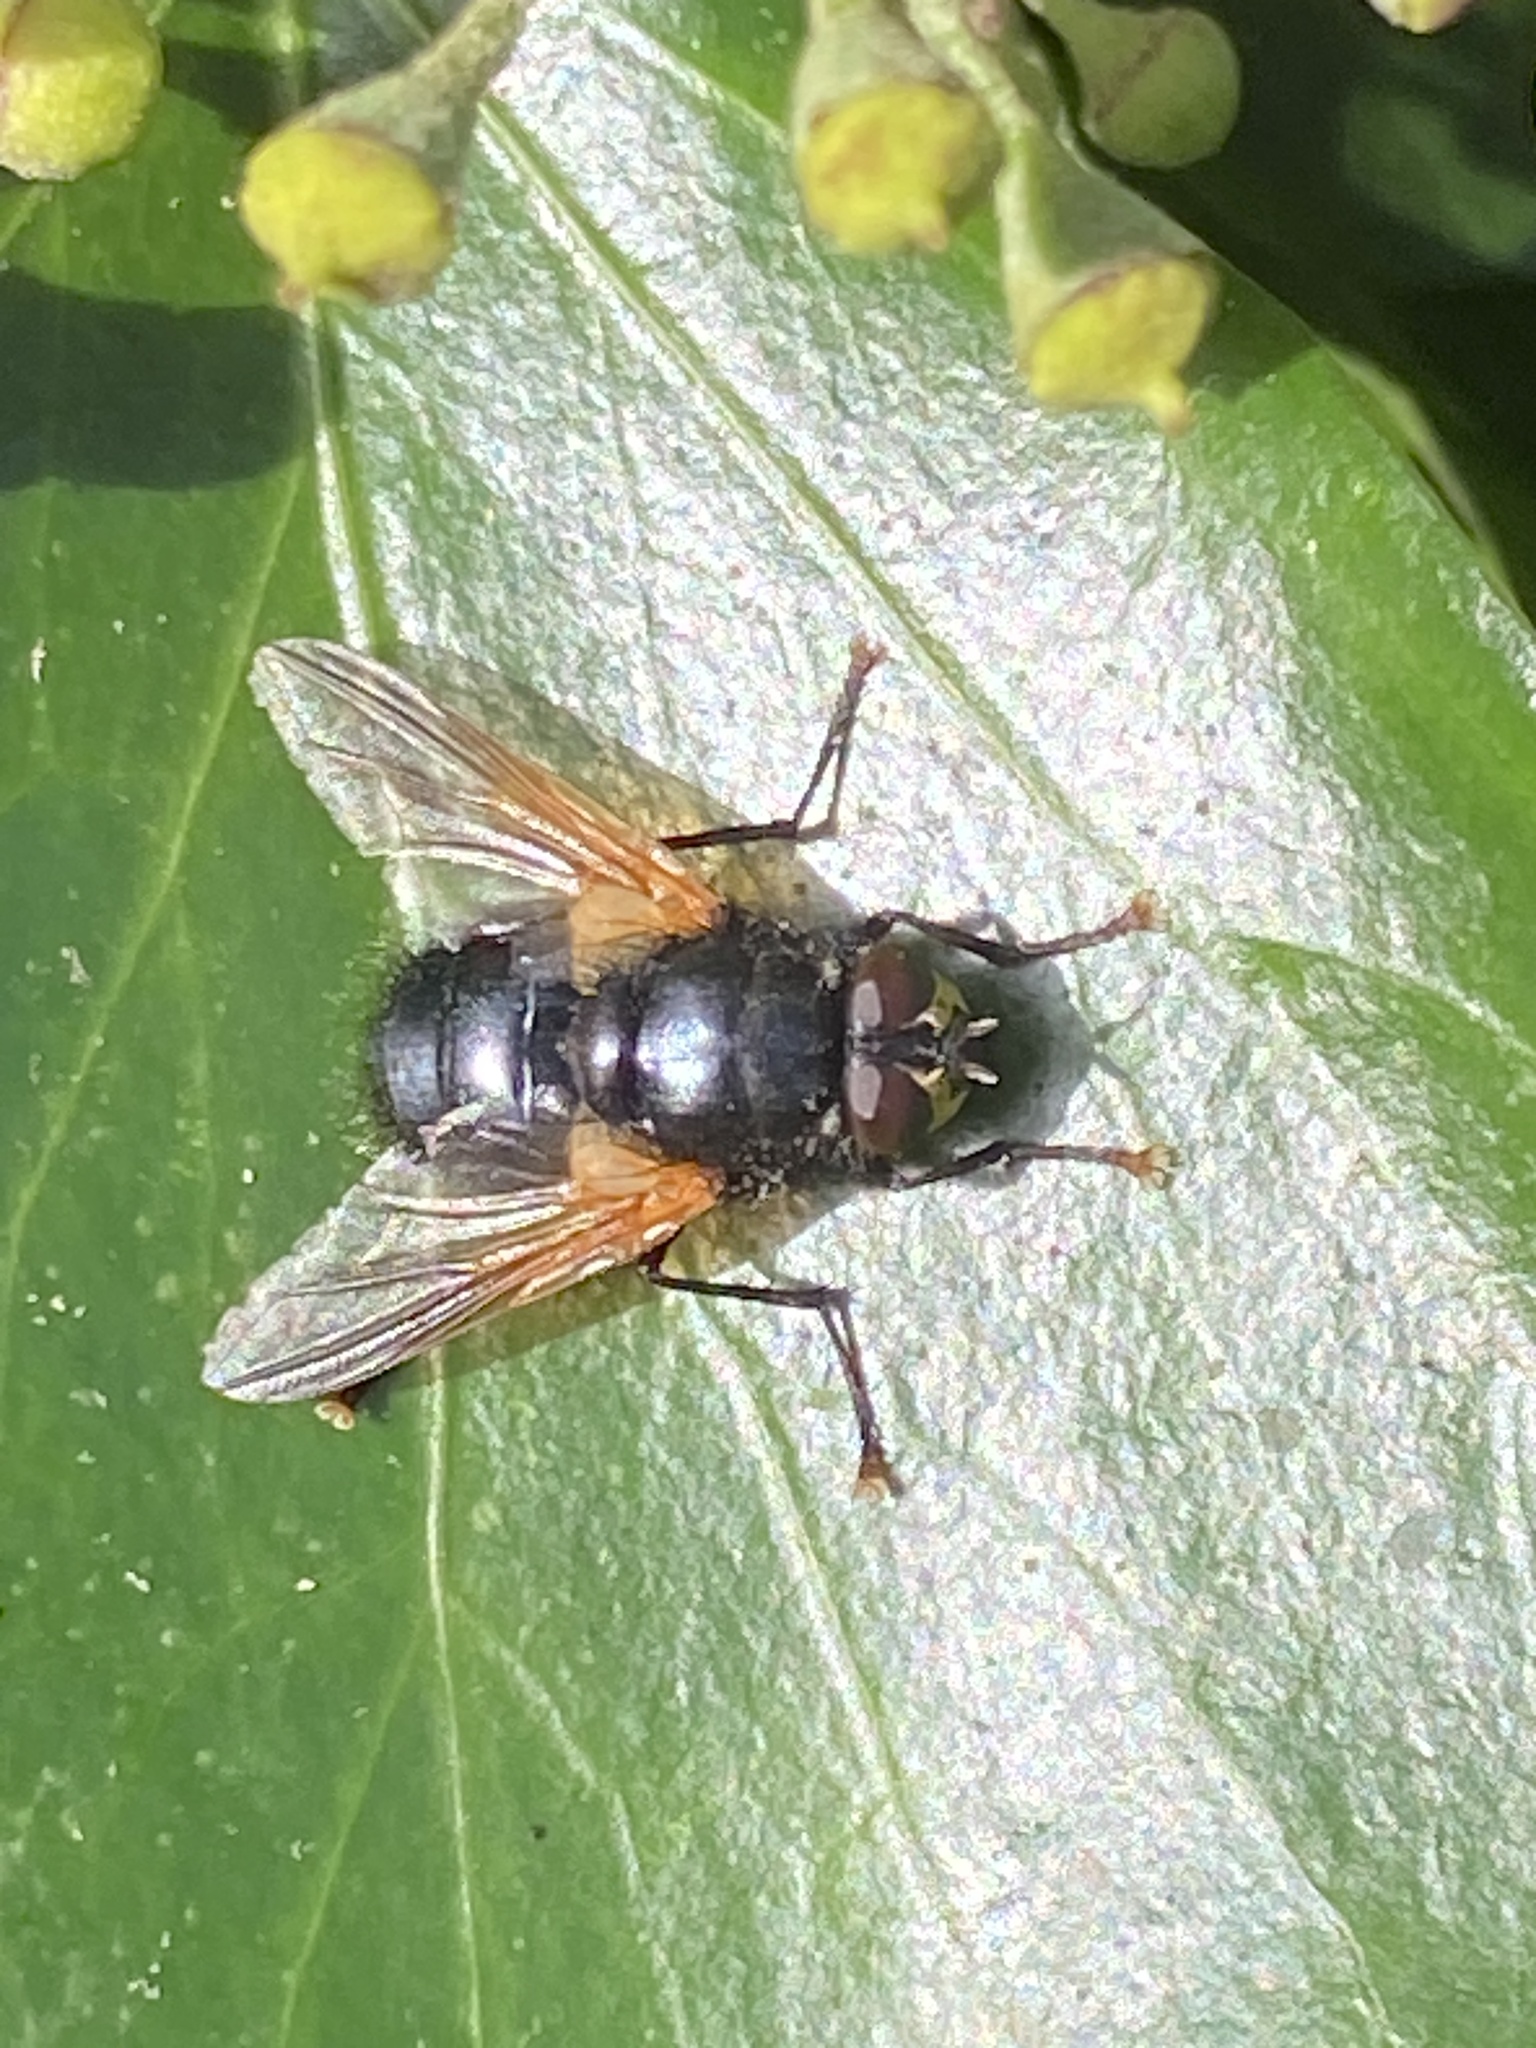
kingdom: Animalia
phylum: Arthropoda
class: Insecta
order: Diptera
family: Muscidae
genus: Mesembrina
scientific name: Mesembrina meridiana
